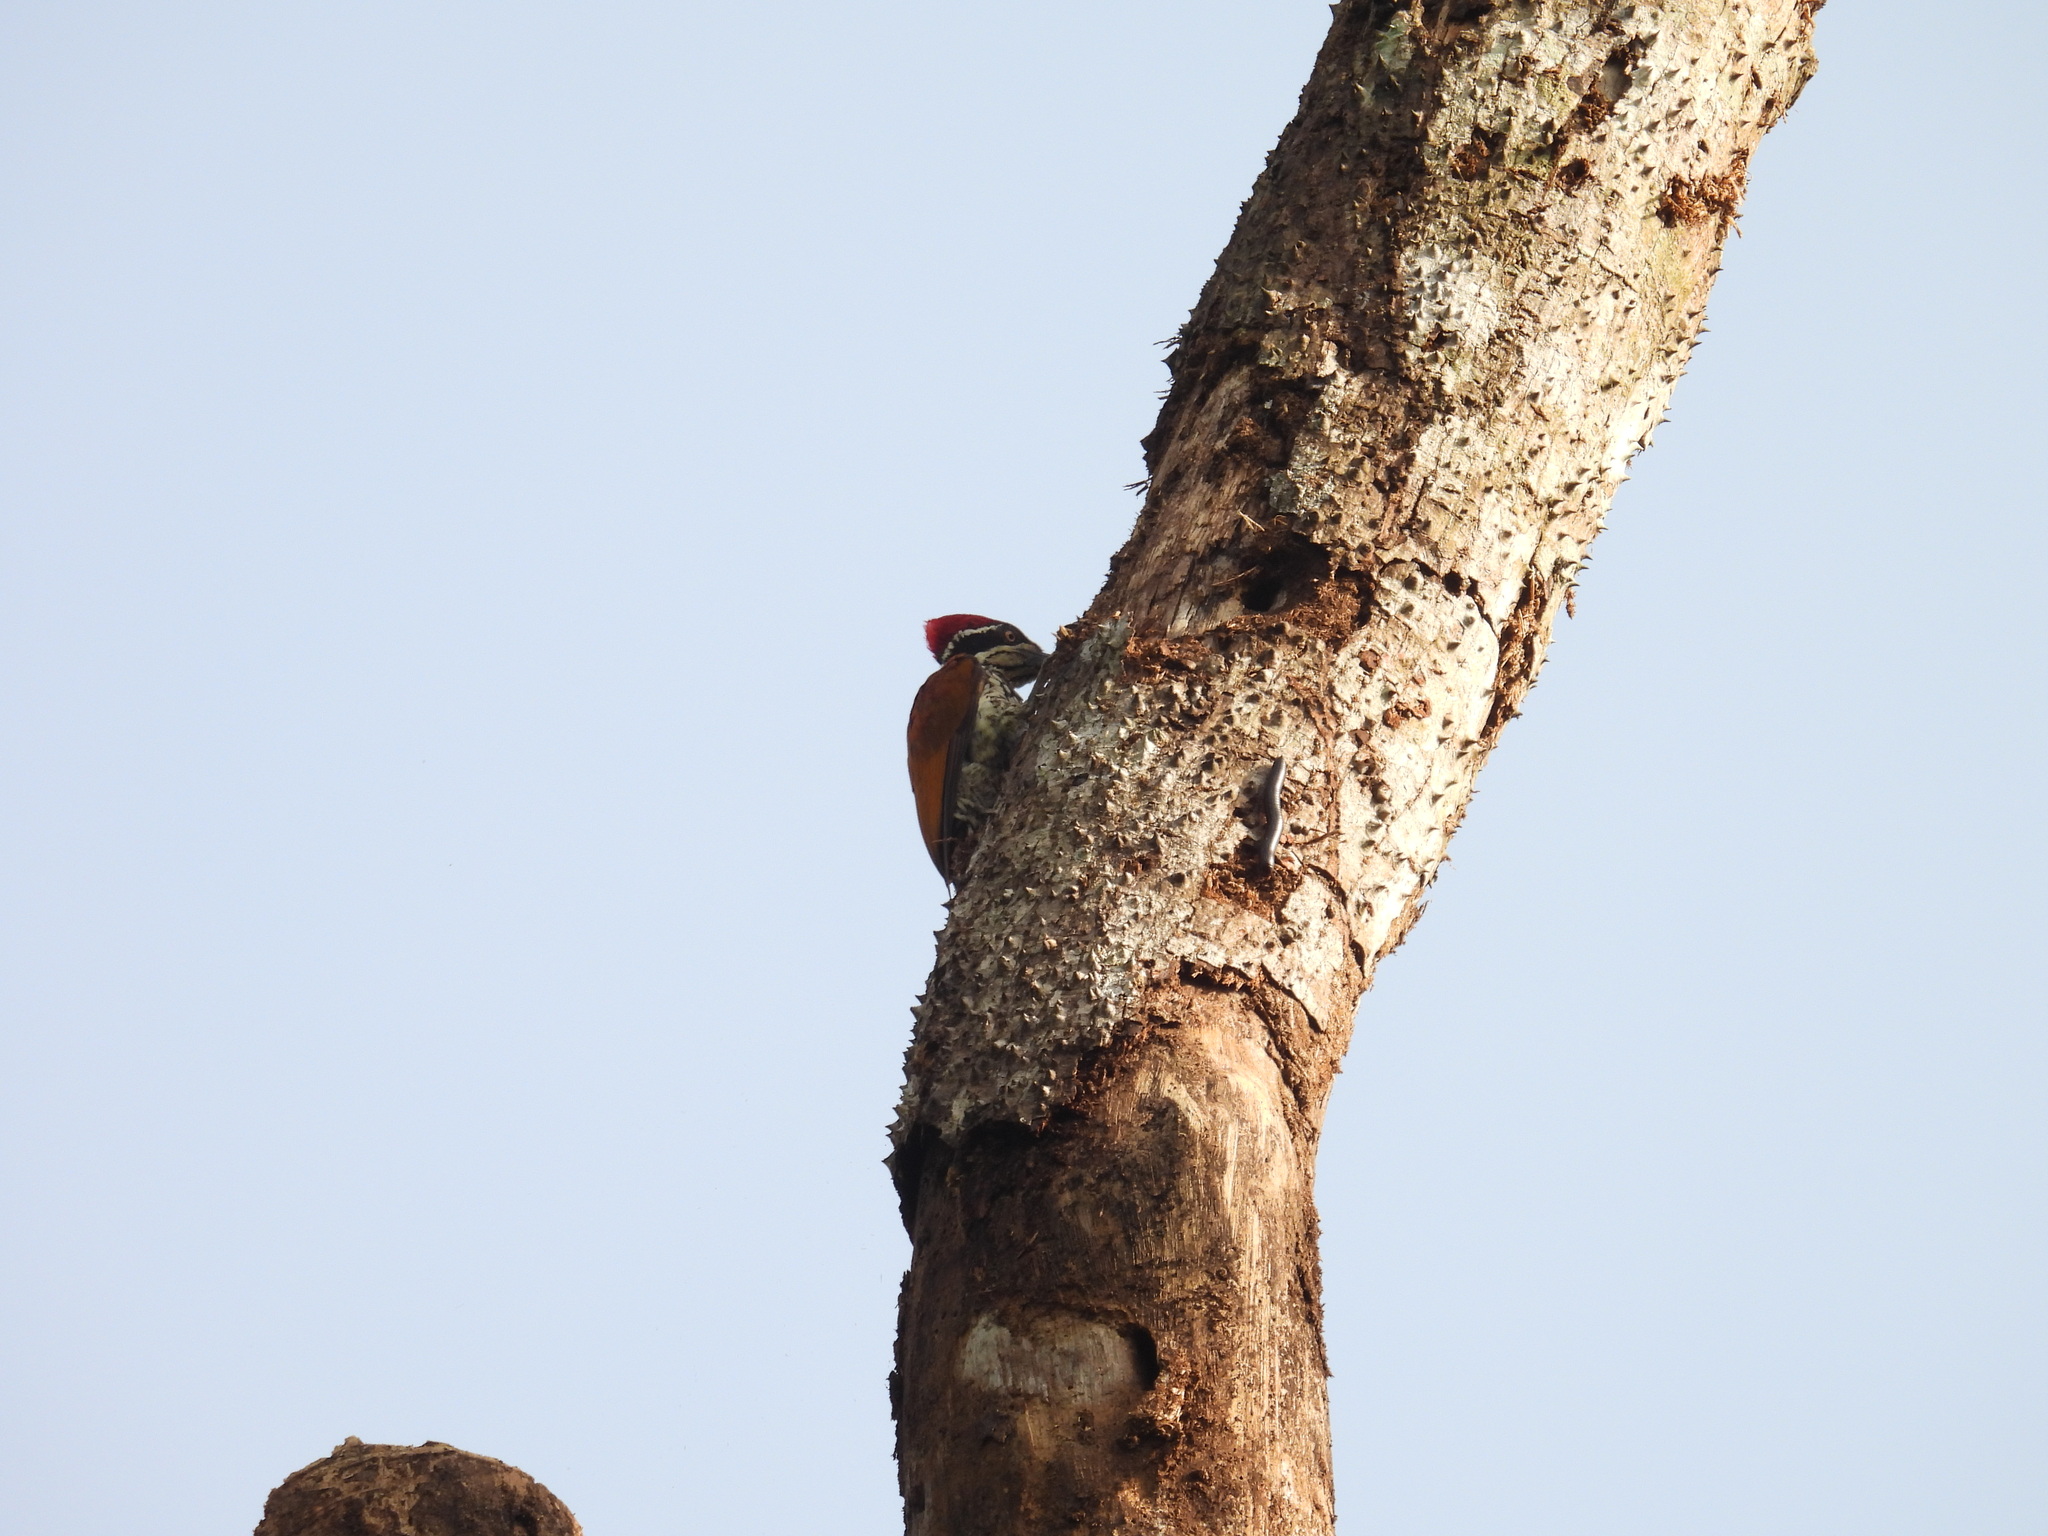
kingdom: Animalia
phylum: Chordata
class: Aves
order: Piciformes
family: Picidae
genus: Chrysocolaptes
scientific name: Chrysocolaptes socialis
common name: Malabar flameback
